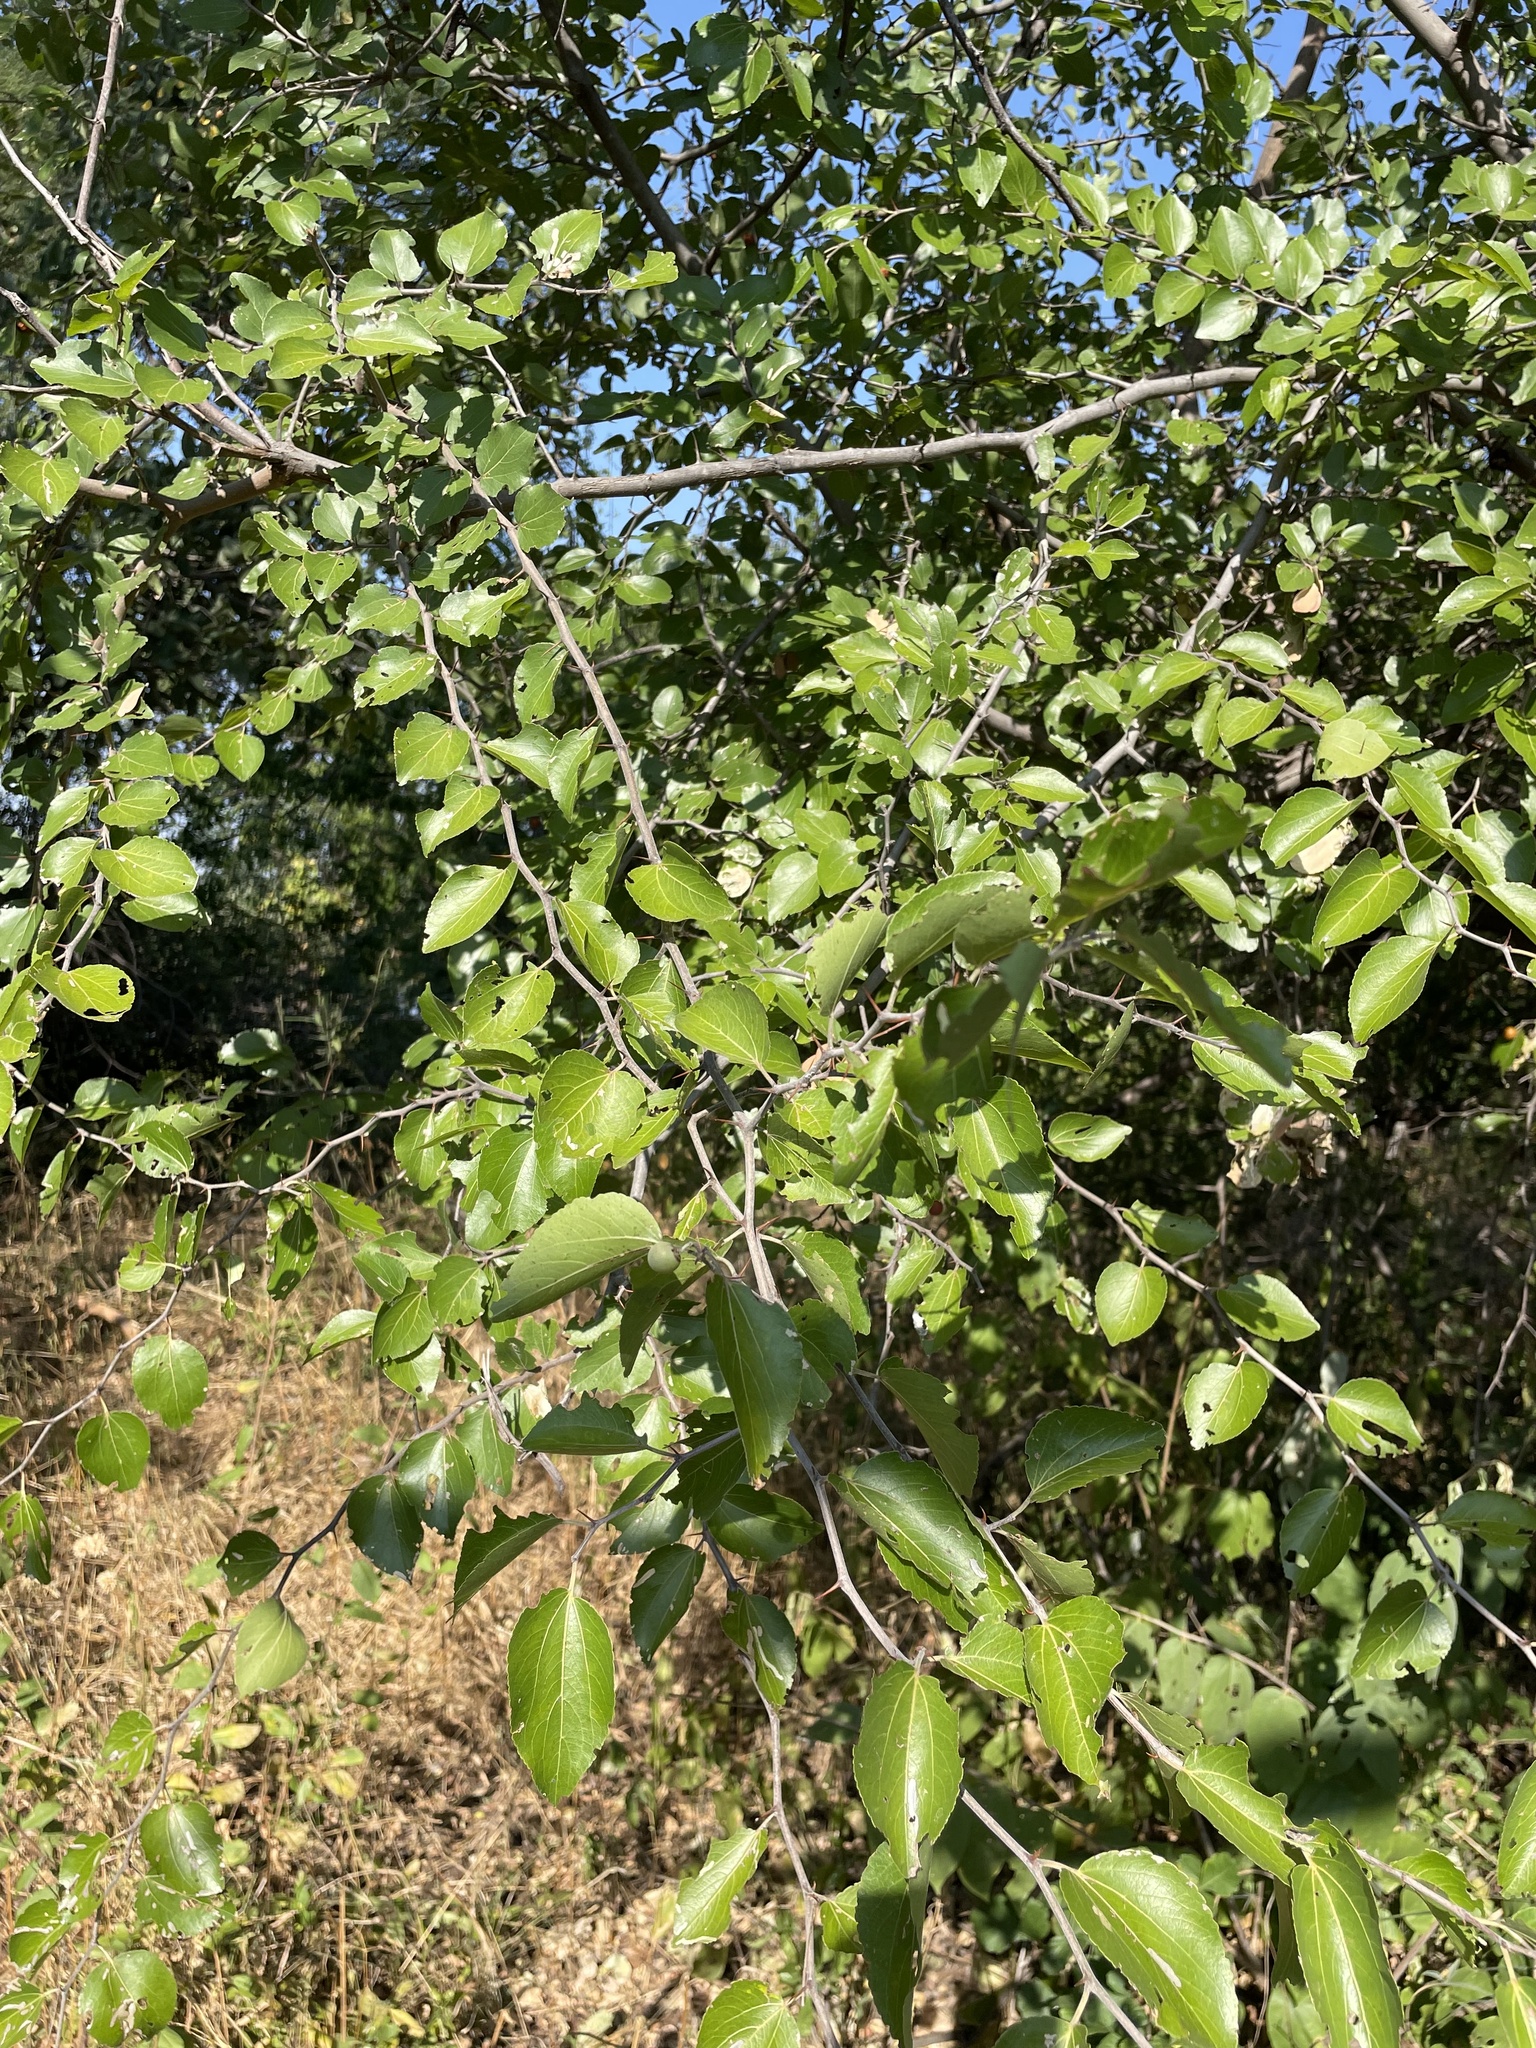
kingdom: Plantae
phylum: Tracheophyta
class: Magnoliopsida
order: Rosales
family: Rhamnaceae
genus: Ziziphus
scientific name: Ziziphus mucronata
